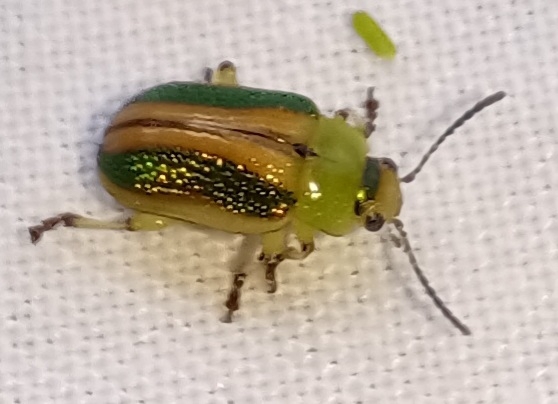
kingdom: Animalia
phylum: Arthropoda
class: Insecta
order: Coleoptera
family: Chrysomelidae
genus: Calomela
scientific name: Calomela
